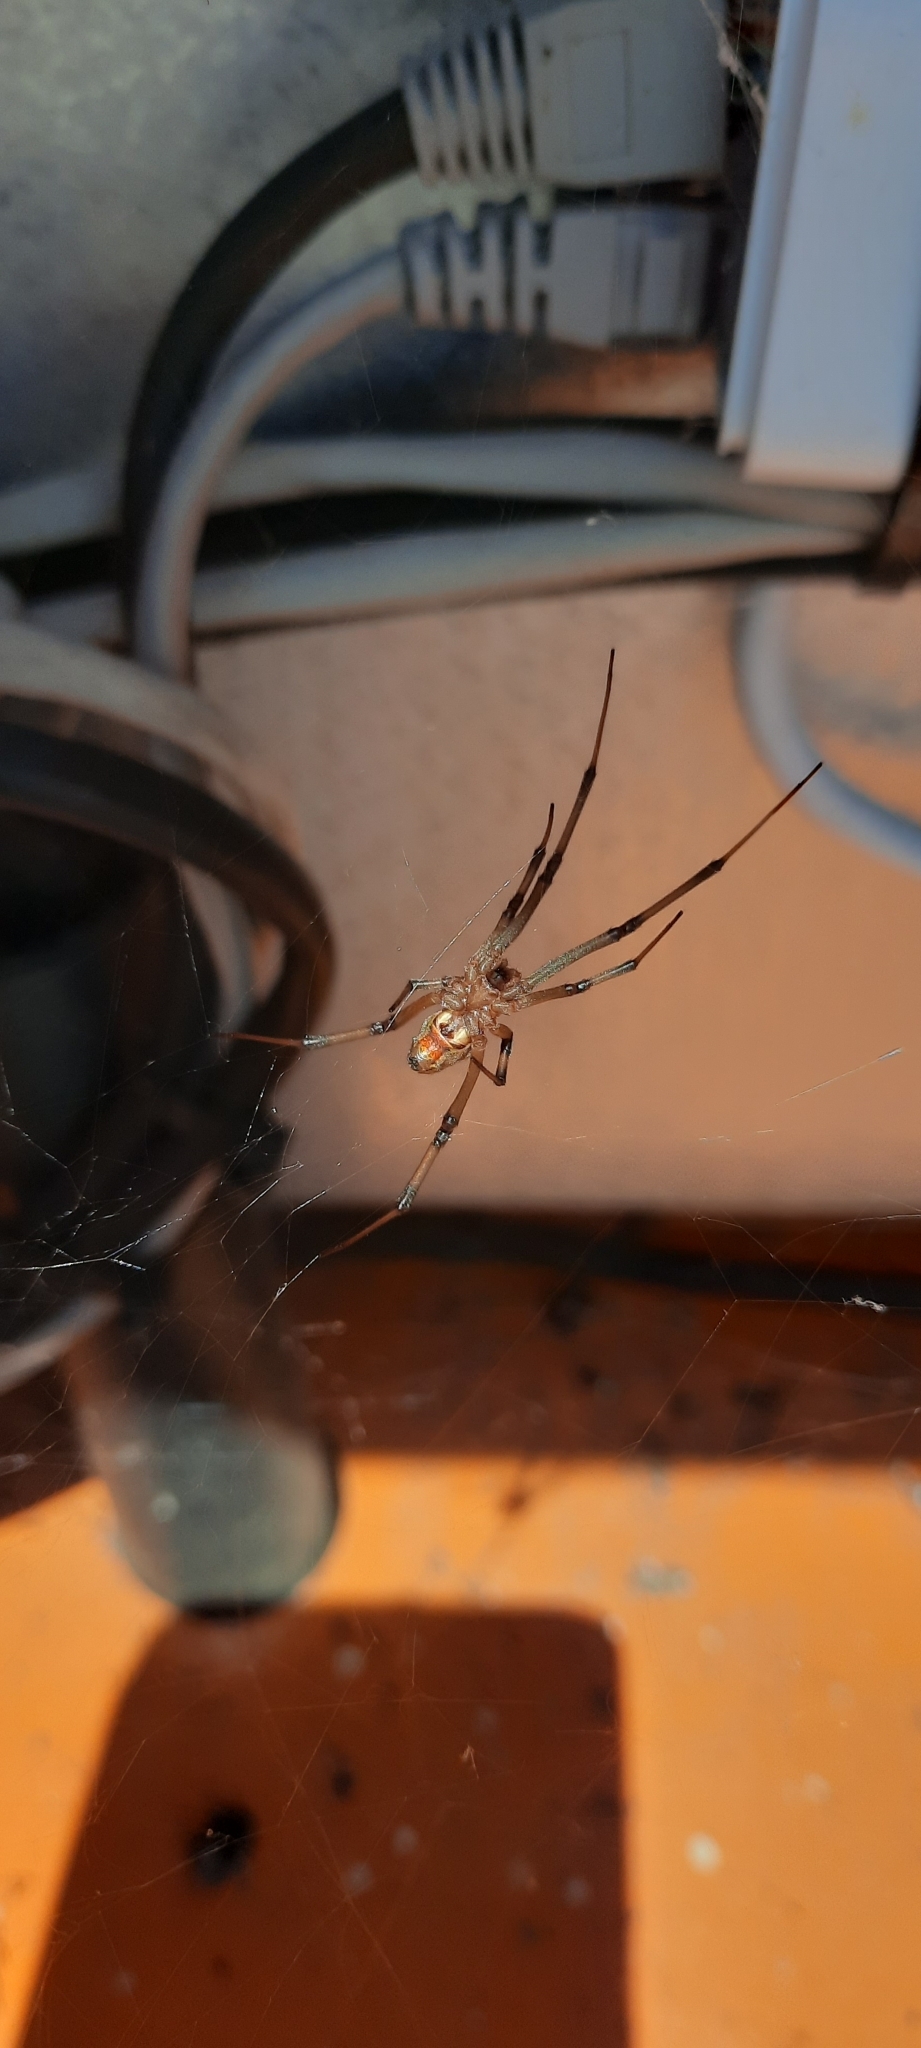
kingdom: Animalia
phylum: Arthropoda
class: Arachnida
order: Araneae
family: Theridiidae
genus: Latrodectus
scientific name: Latrodectus geometricus
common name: Brown widow spider
